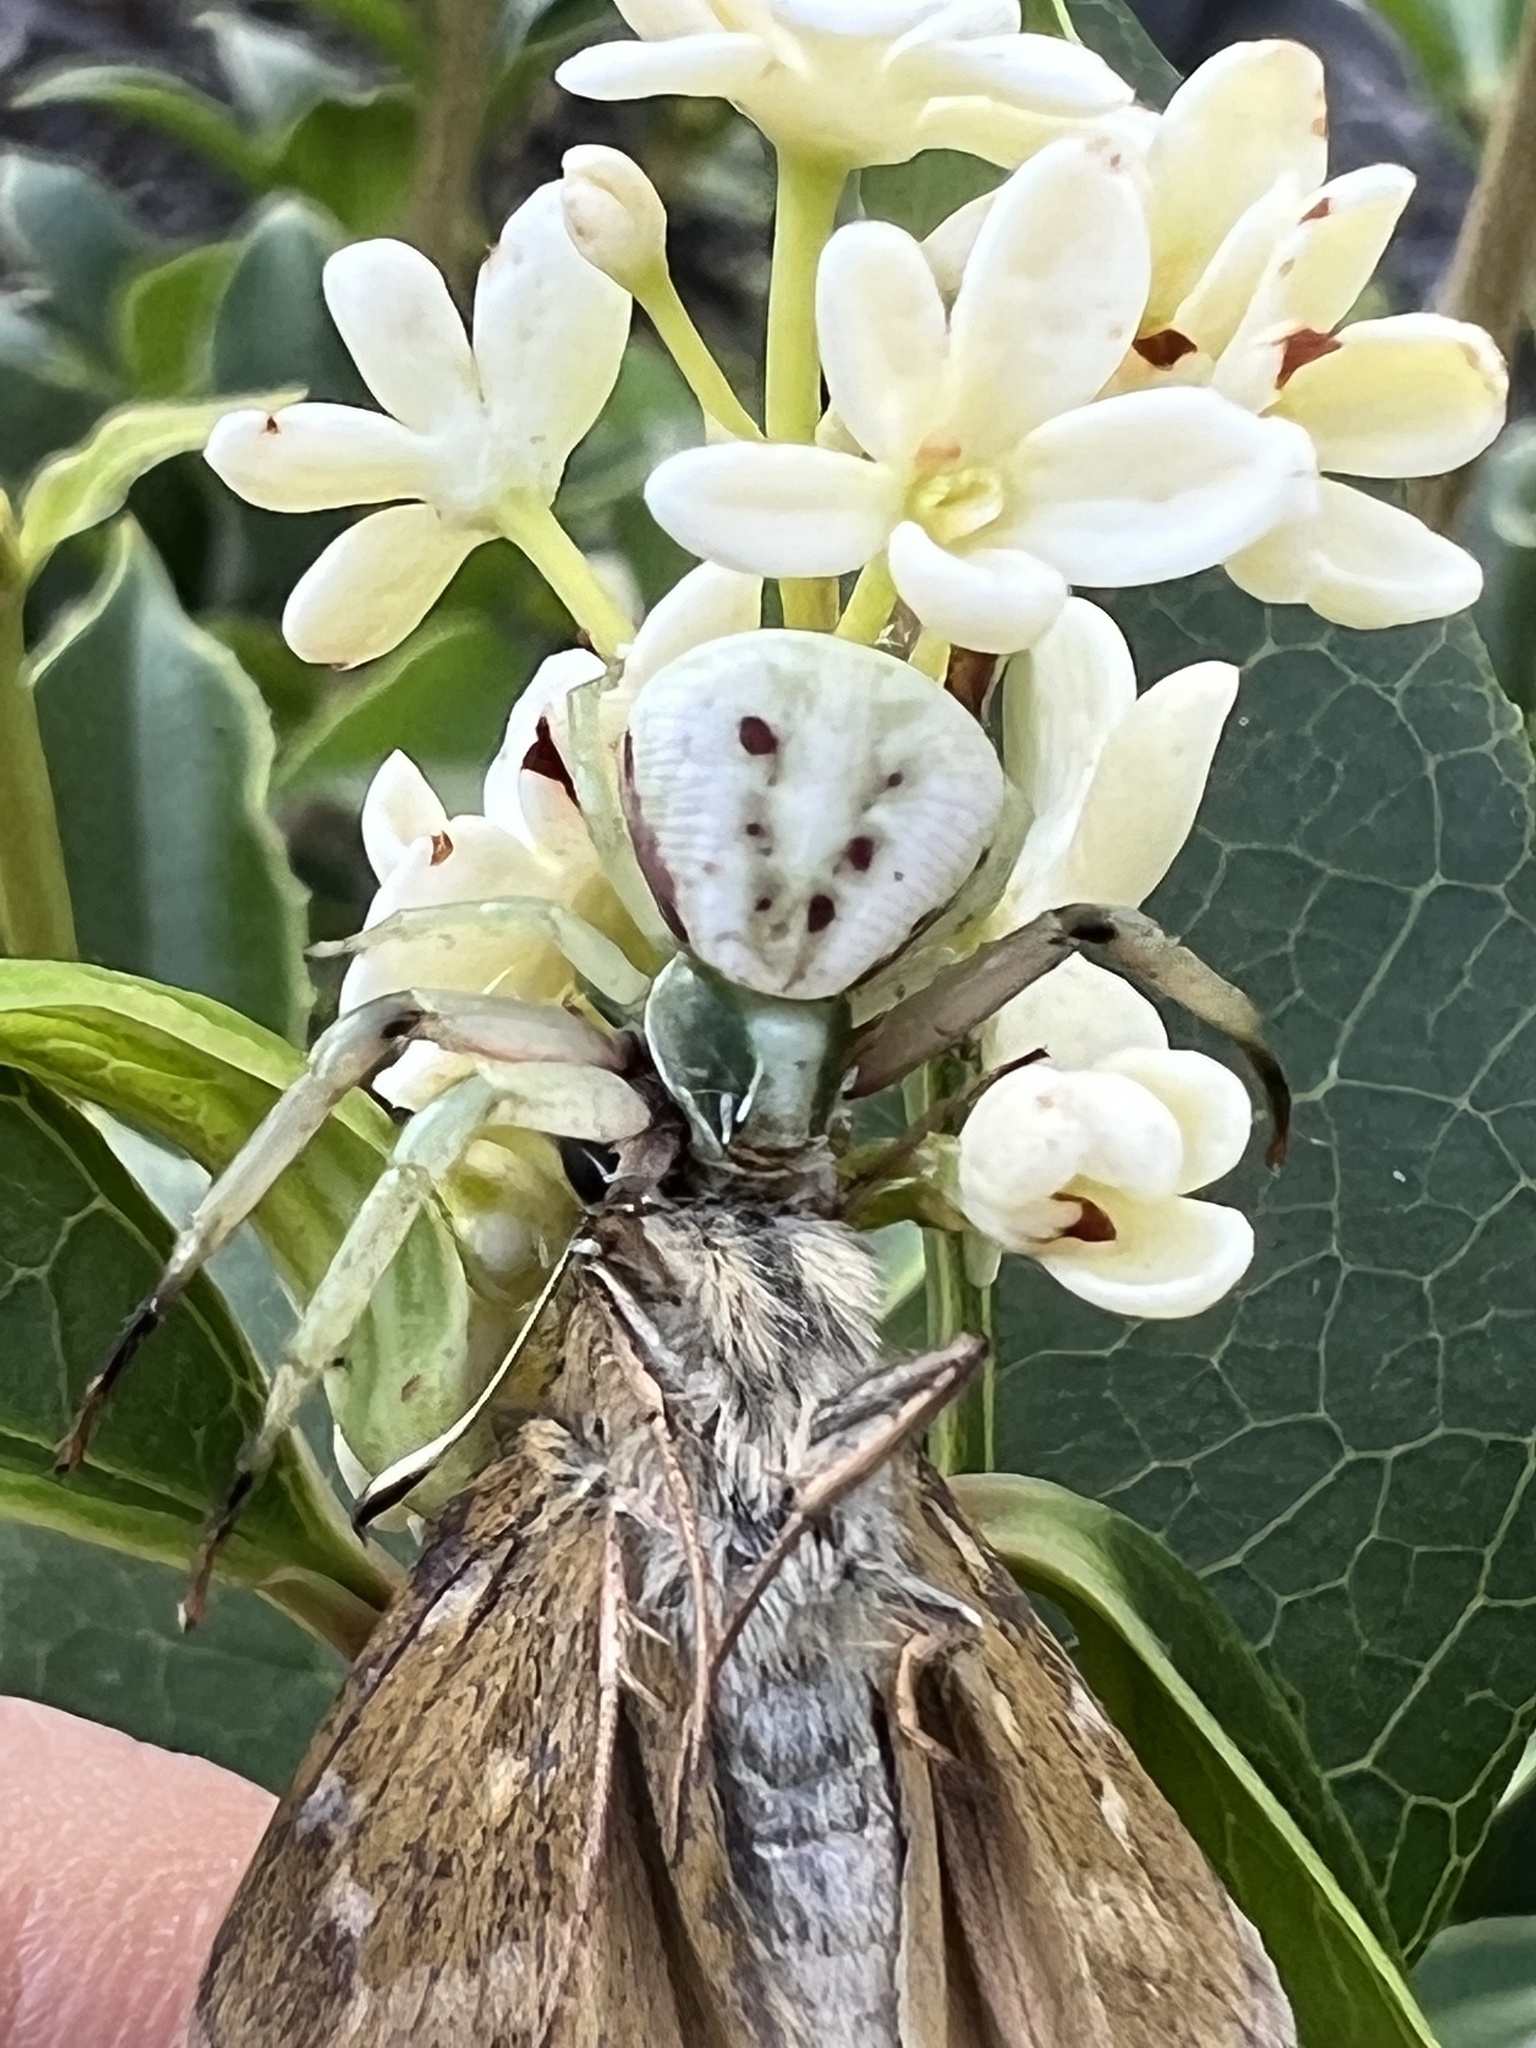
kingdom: Animalia
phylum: Arthropoda
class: Arachnida
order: Araneae
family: Thomisidae
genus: Misumenoides
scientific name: Misumenoides formosipes
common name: White-banded crab spider
